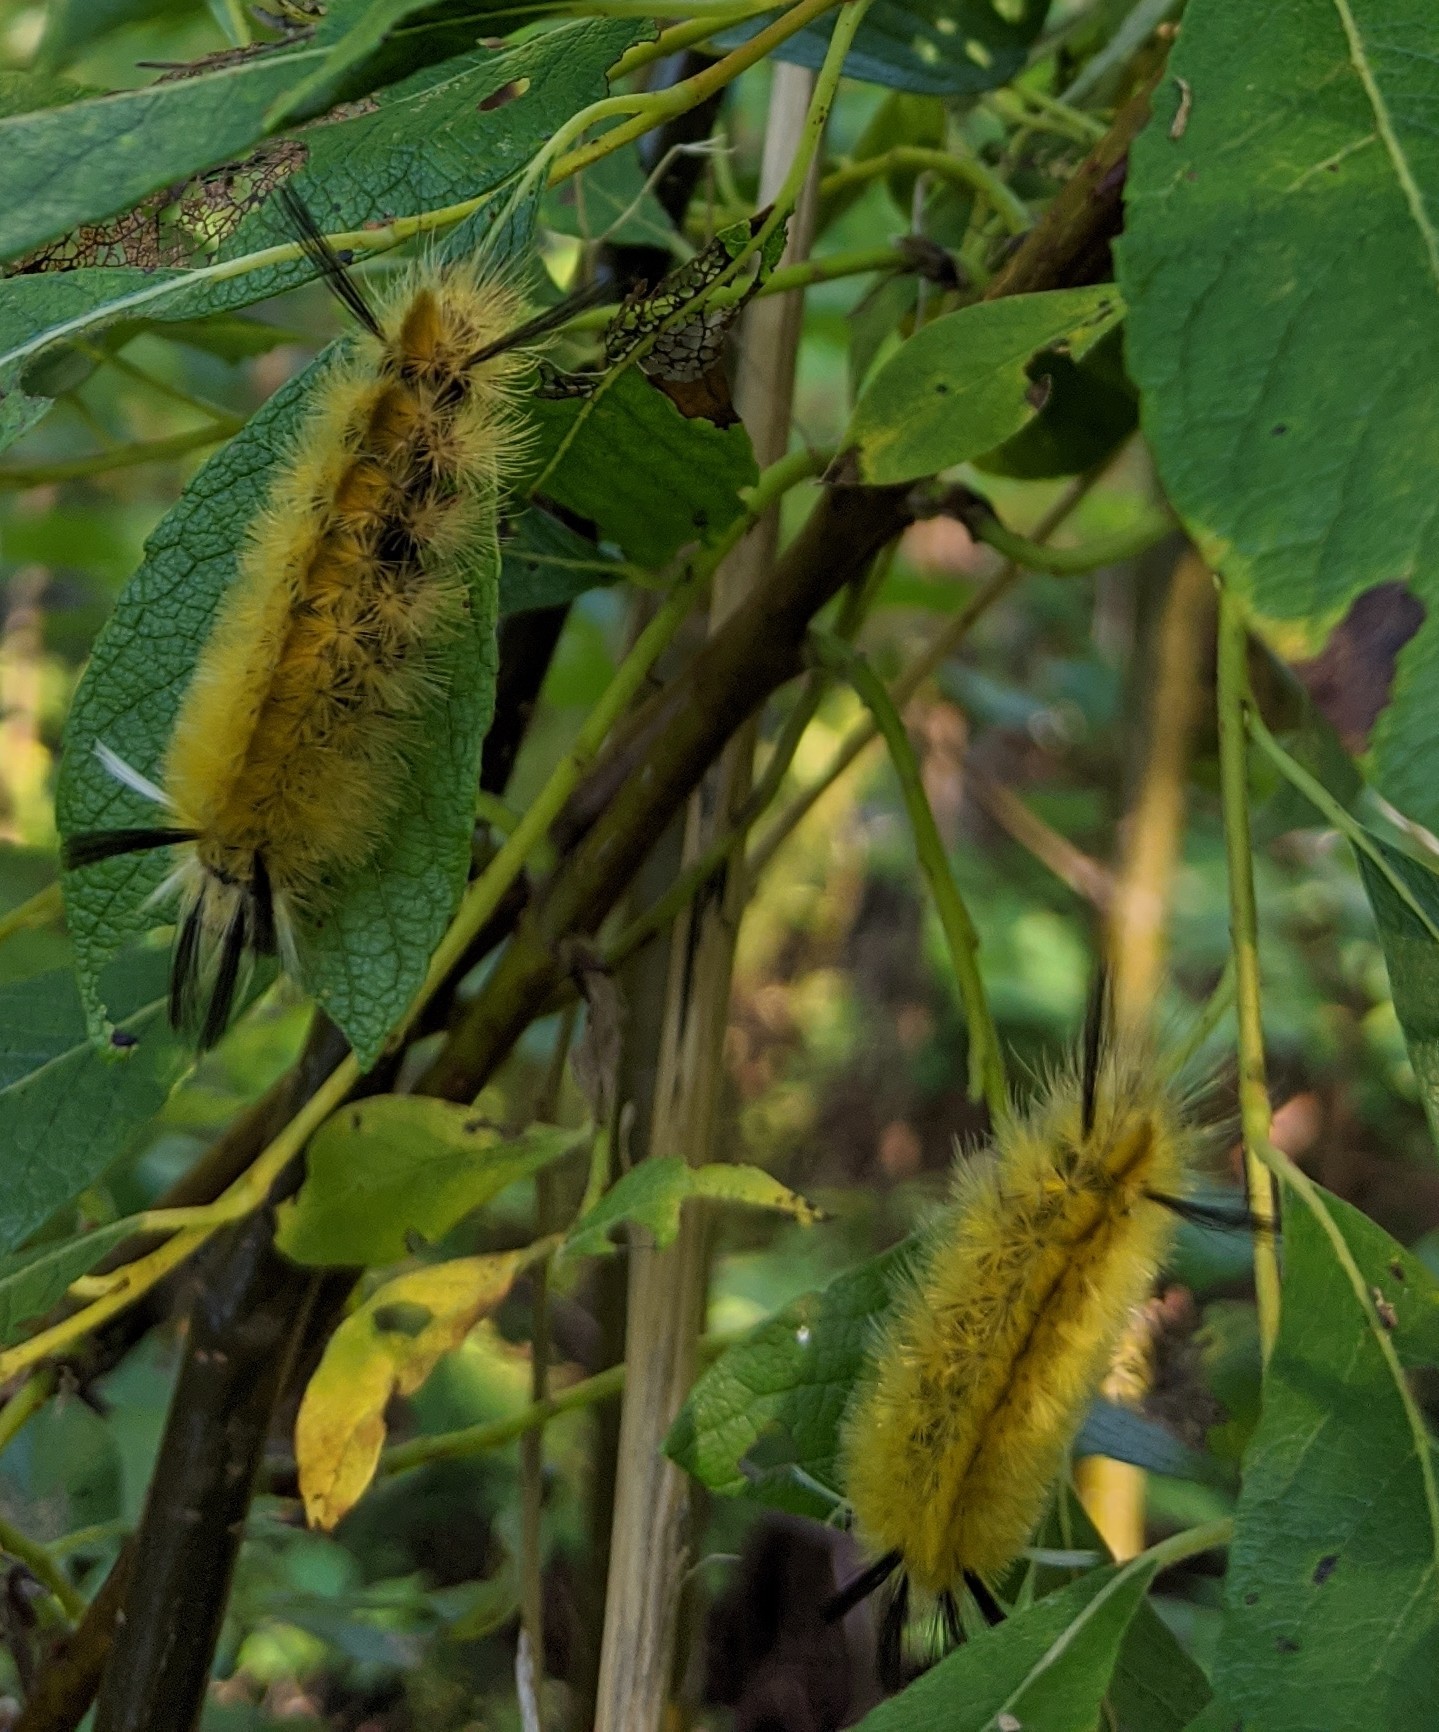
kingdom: Animalia
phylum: Arthropoda
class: Insecta
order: Lepidoptera
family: Erebidae
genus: Halysidota
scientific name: Halysidota tessellaris
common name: Banded tussock moth
